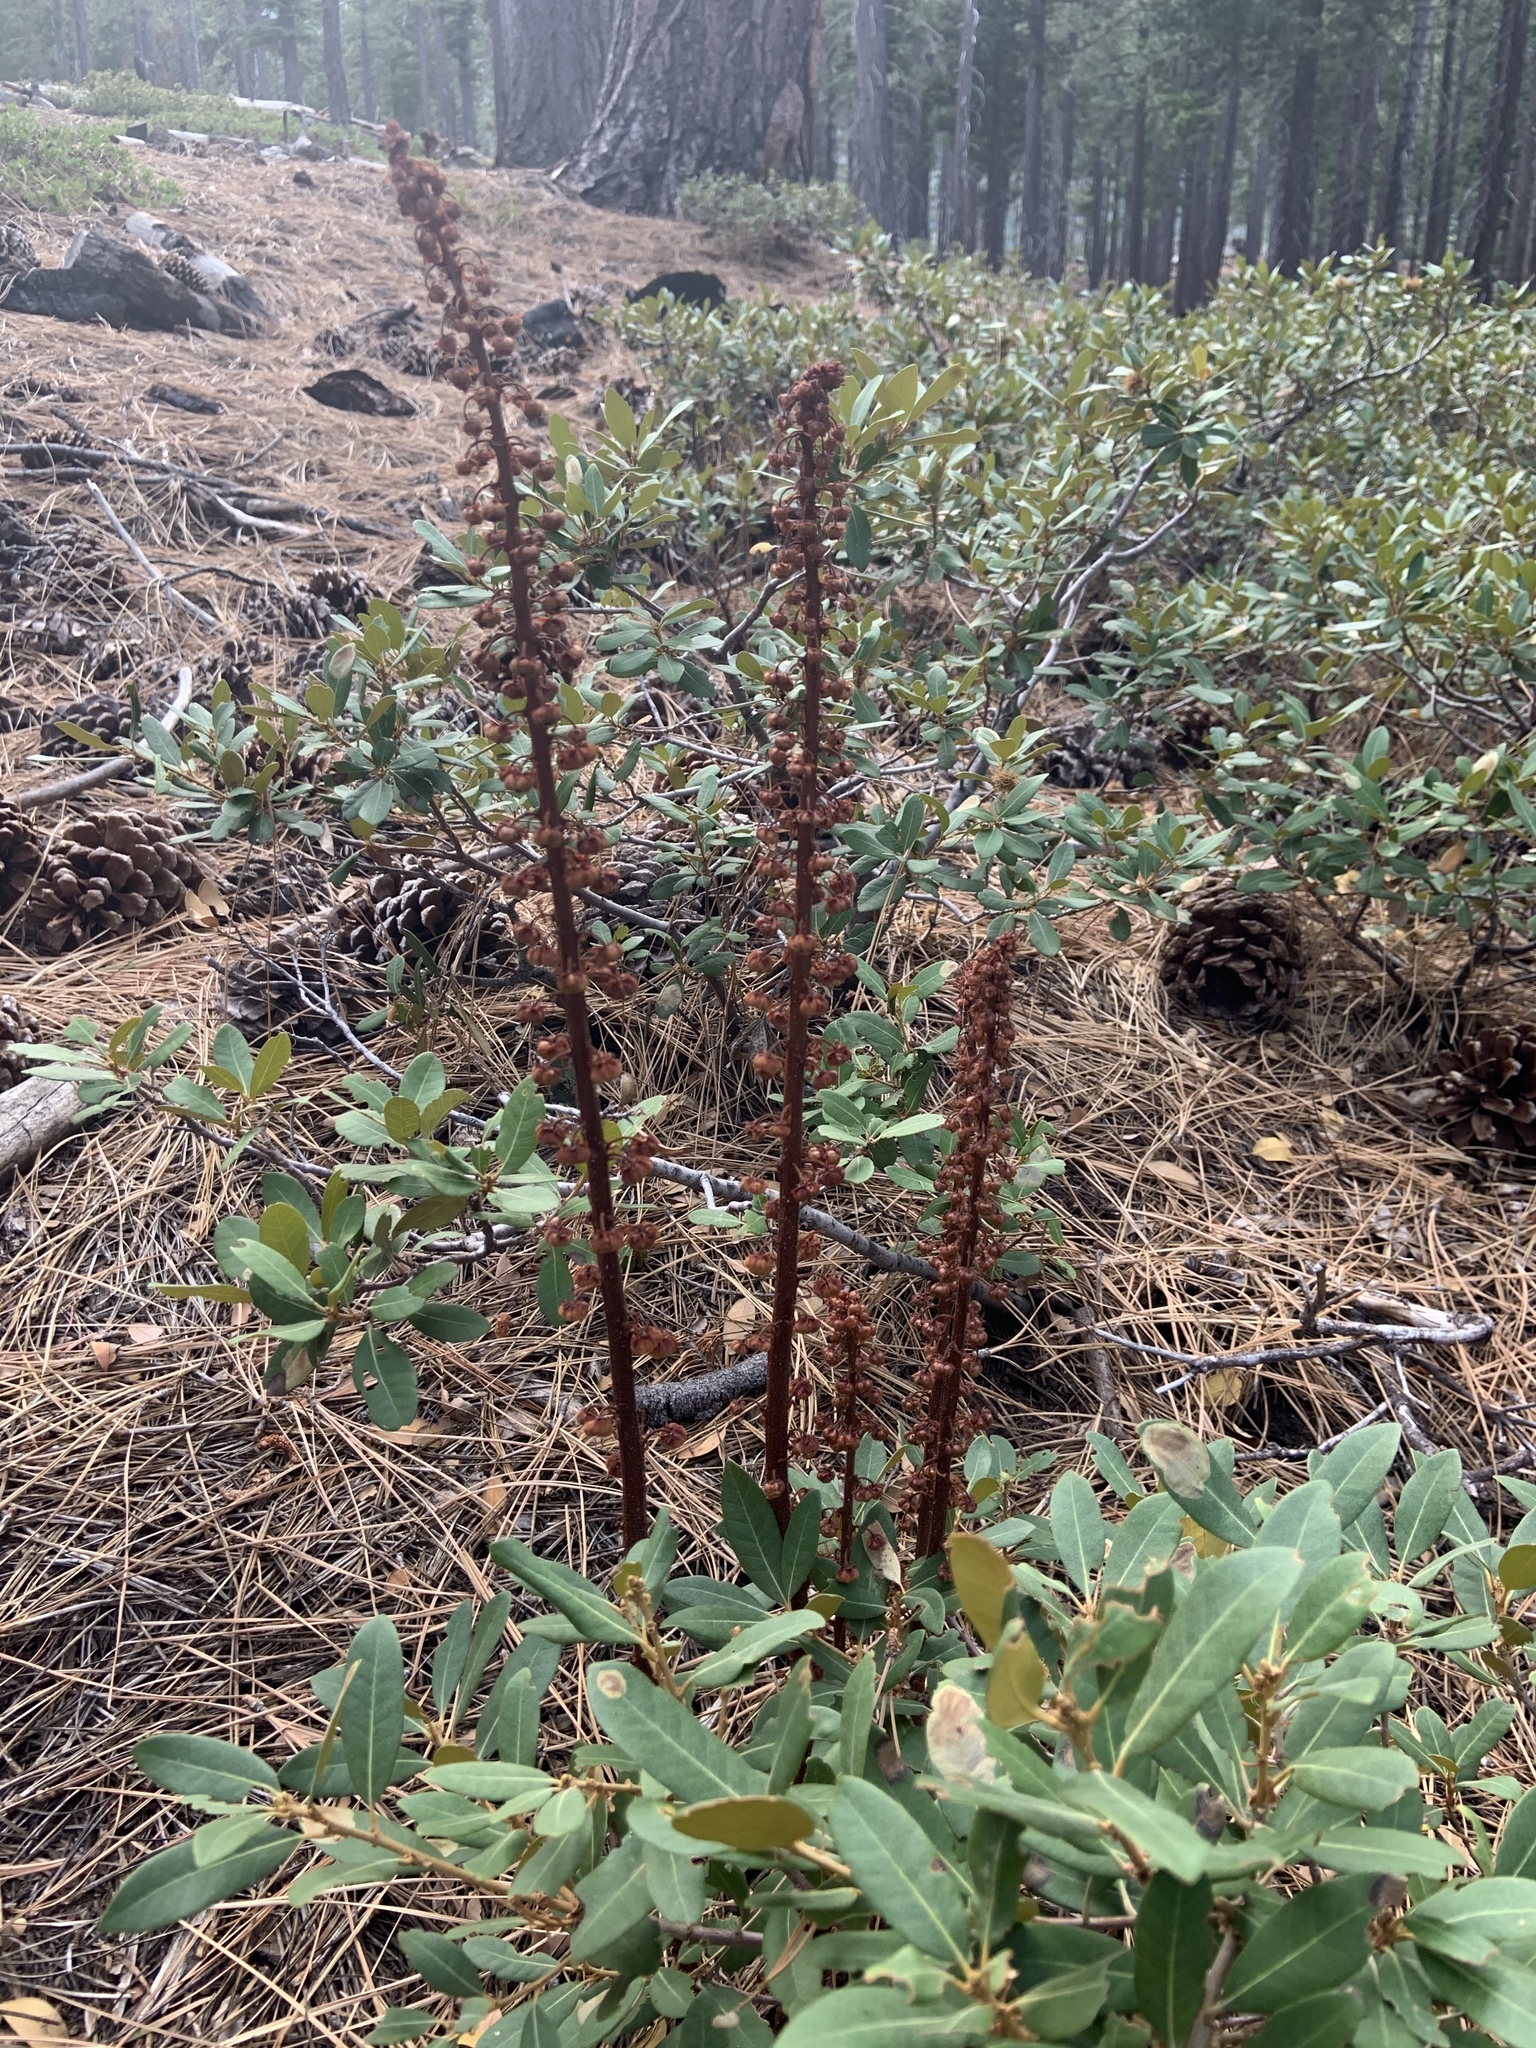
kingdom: Plantae
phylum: Tracheophyta
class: Magnoliopsida
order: Ericales
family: Ericaceae
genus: Pterospora
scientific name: Pterospora andromedea
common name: Giant bird's-nest
